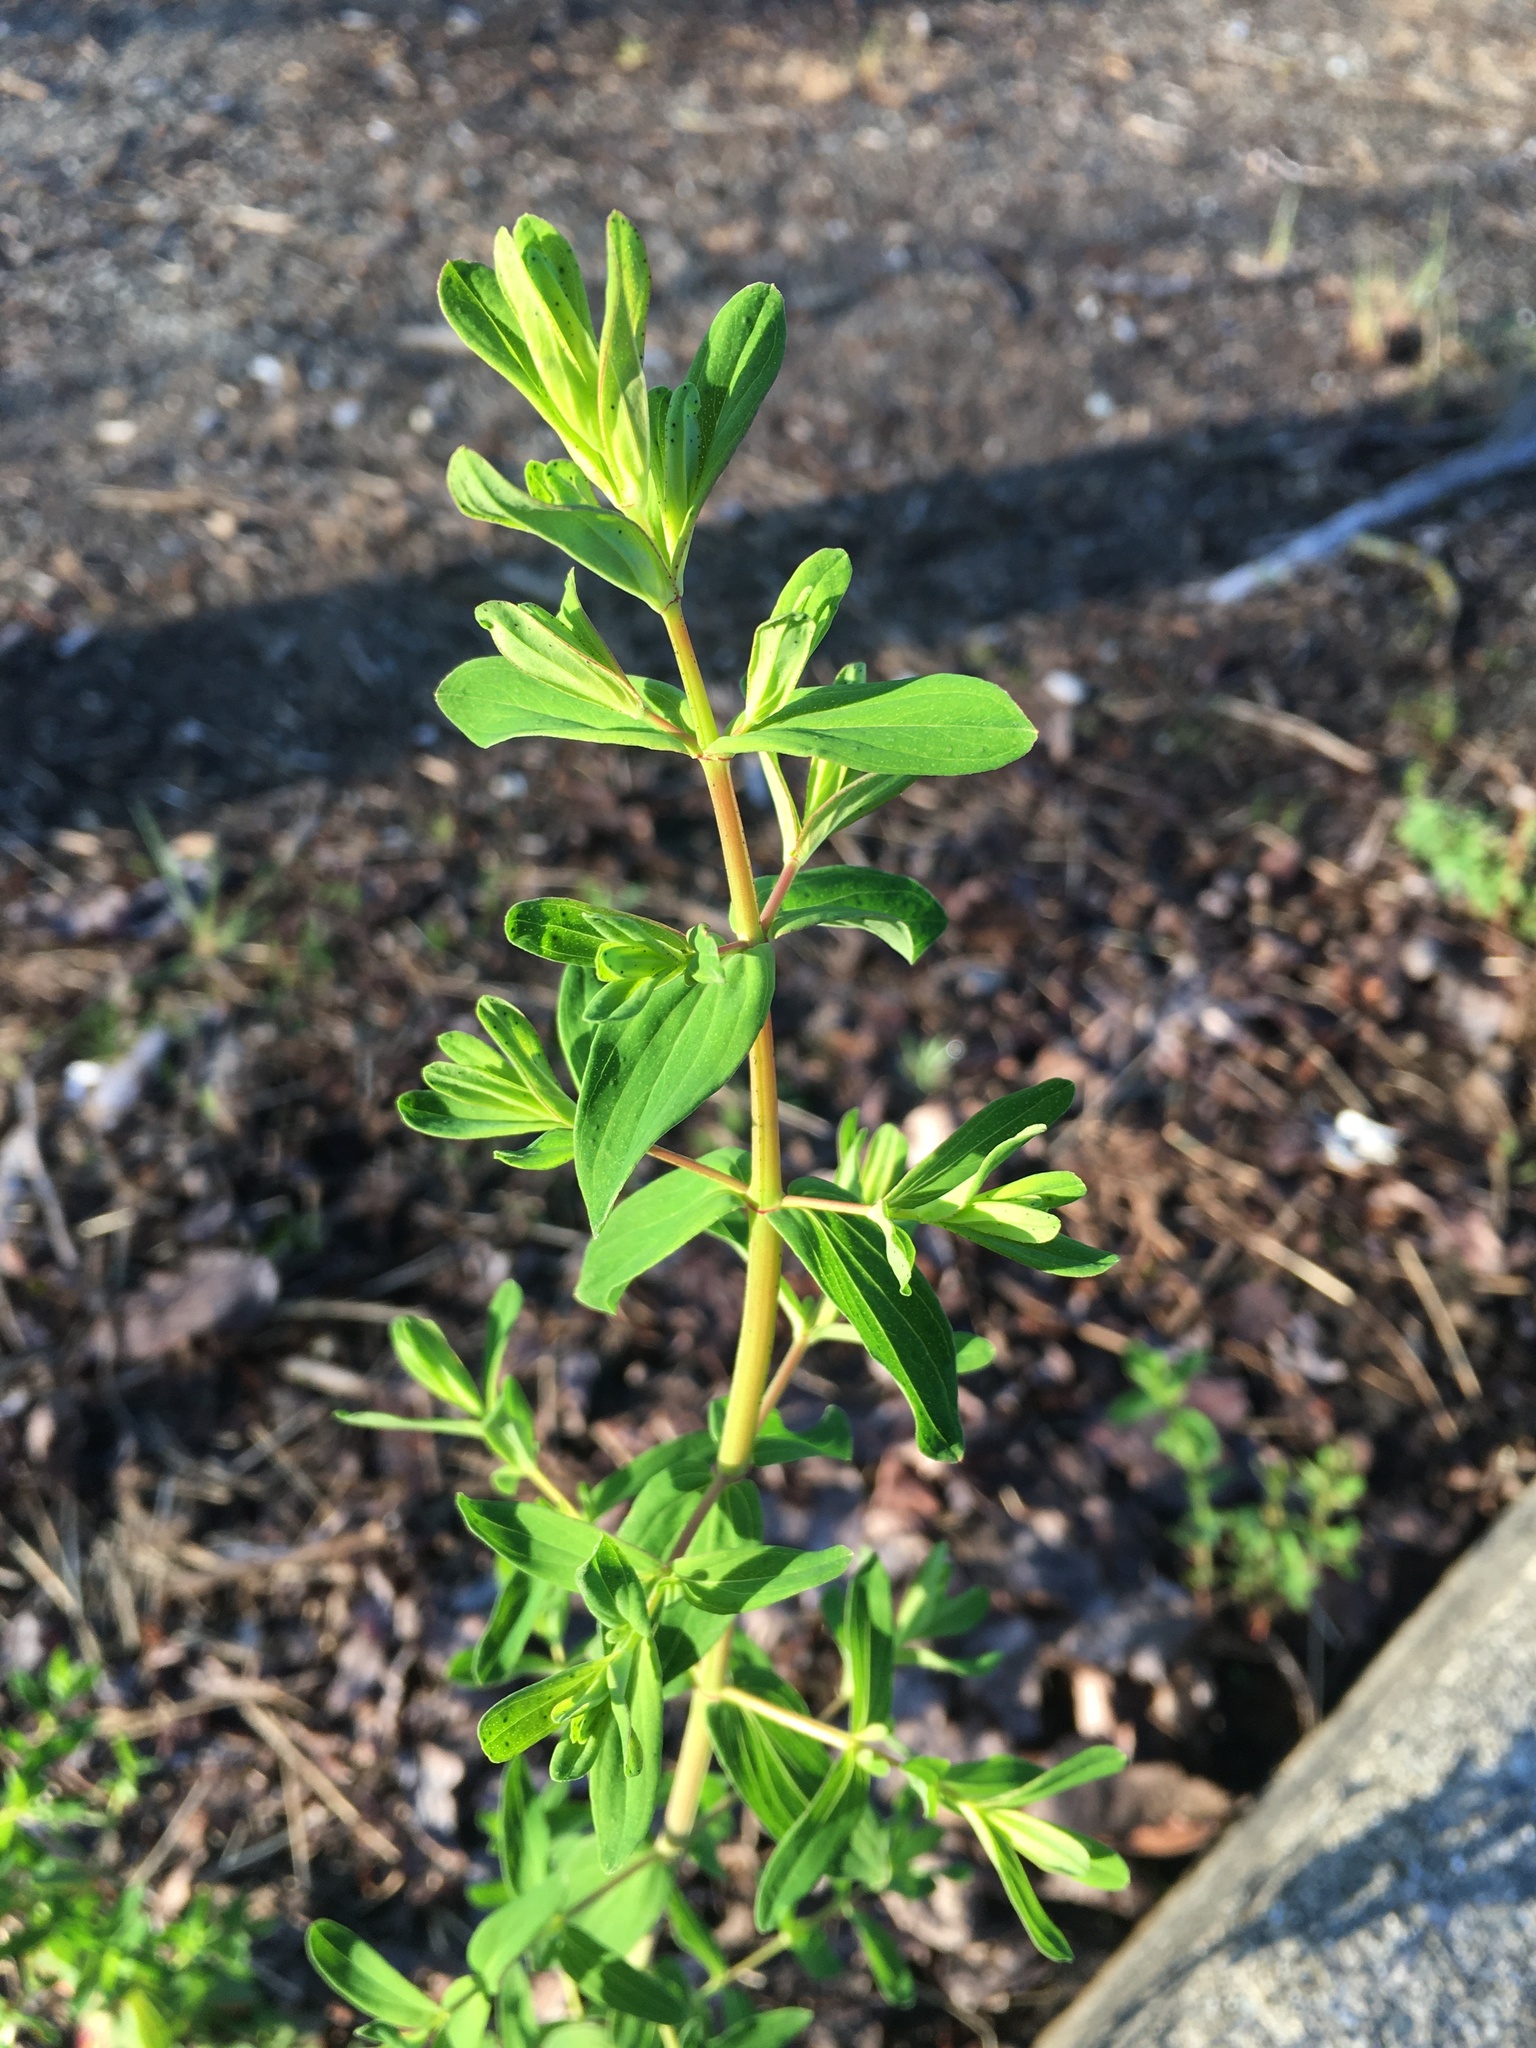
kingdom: Plantae
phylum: Tracheophyta
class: Magnoliopsida
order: Malpighiales
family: Hypericaceae
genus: Hypericum
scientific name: Hypericum perforatum
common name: Common st. johnswort
